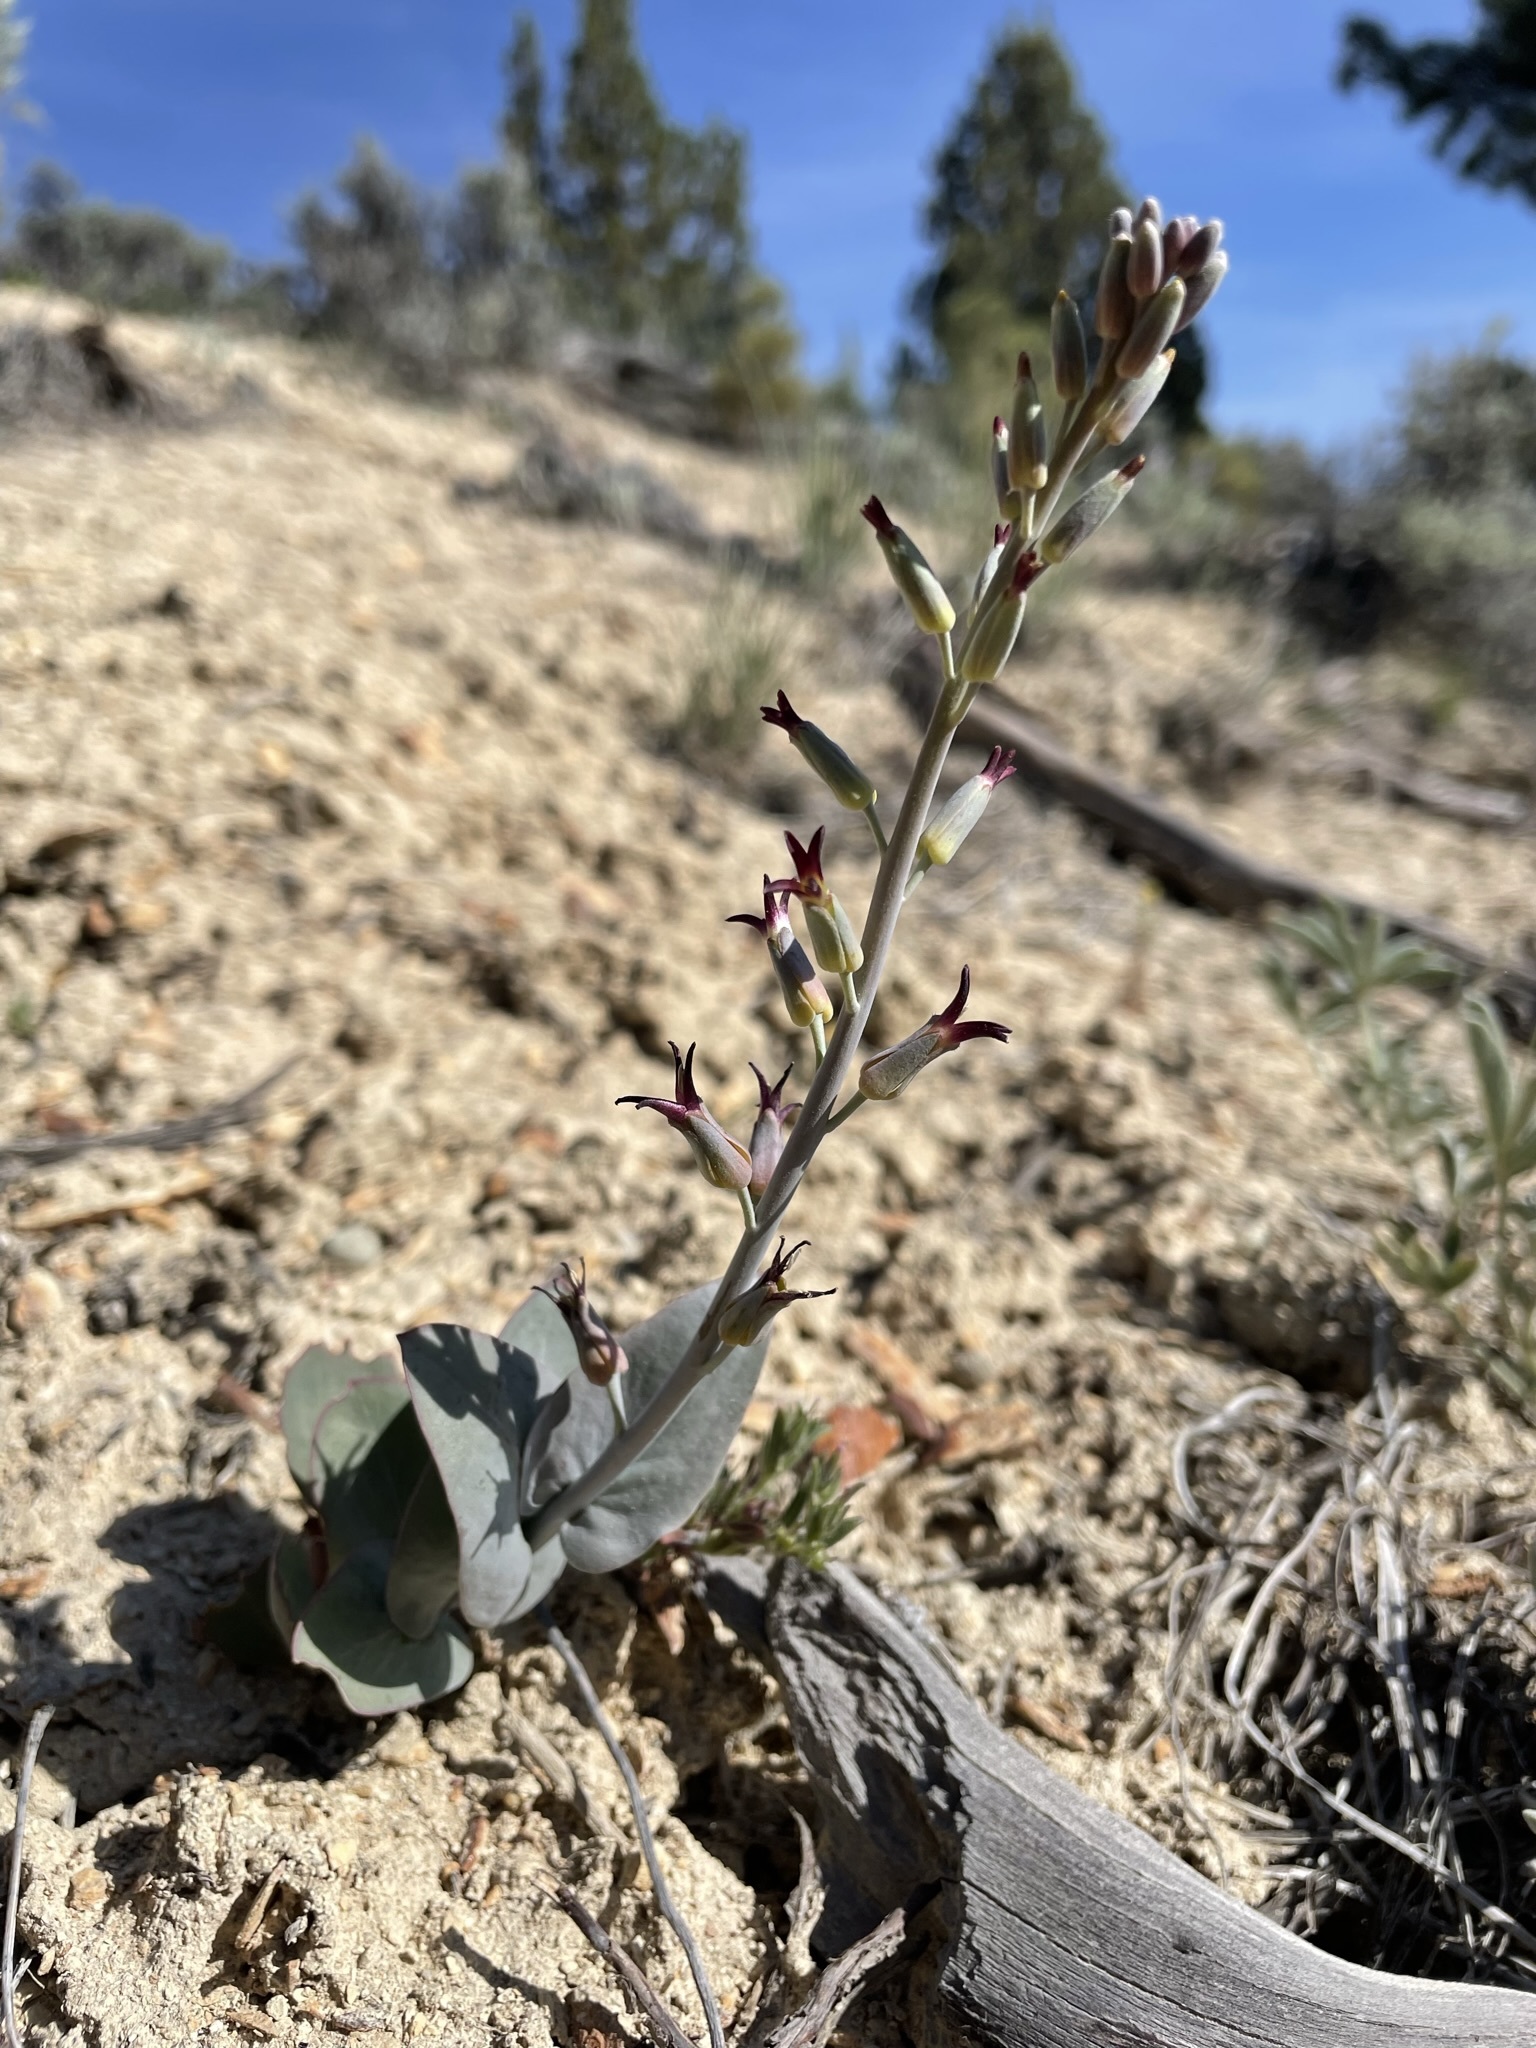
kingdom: Plantae
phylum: Tracheophyta
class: Magnoliopsida
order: Brassicales
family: Brassicaceae
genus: Streptanthus
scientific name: Streptanthus cordatus
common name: Heart-leaf jewel-flower
